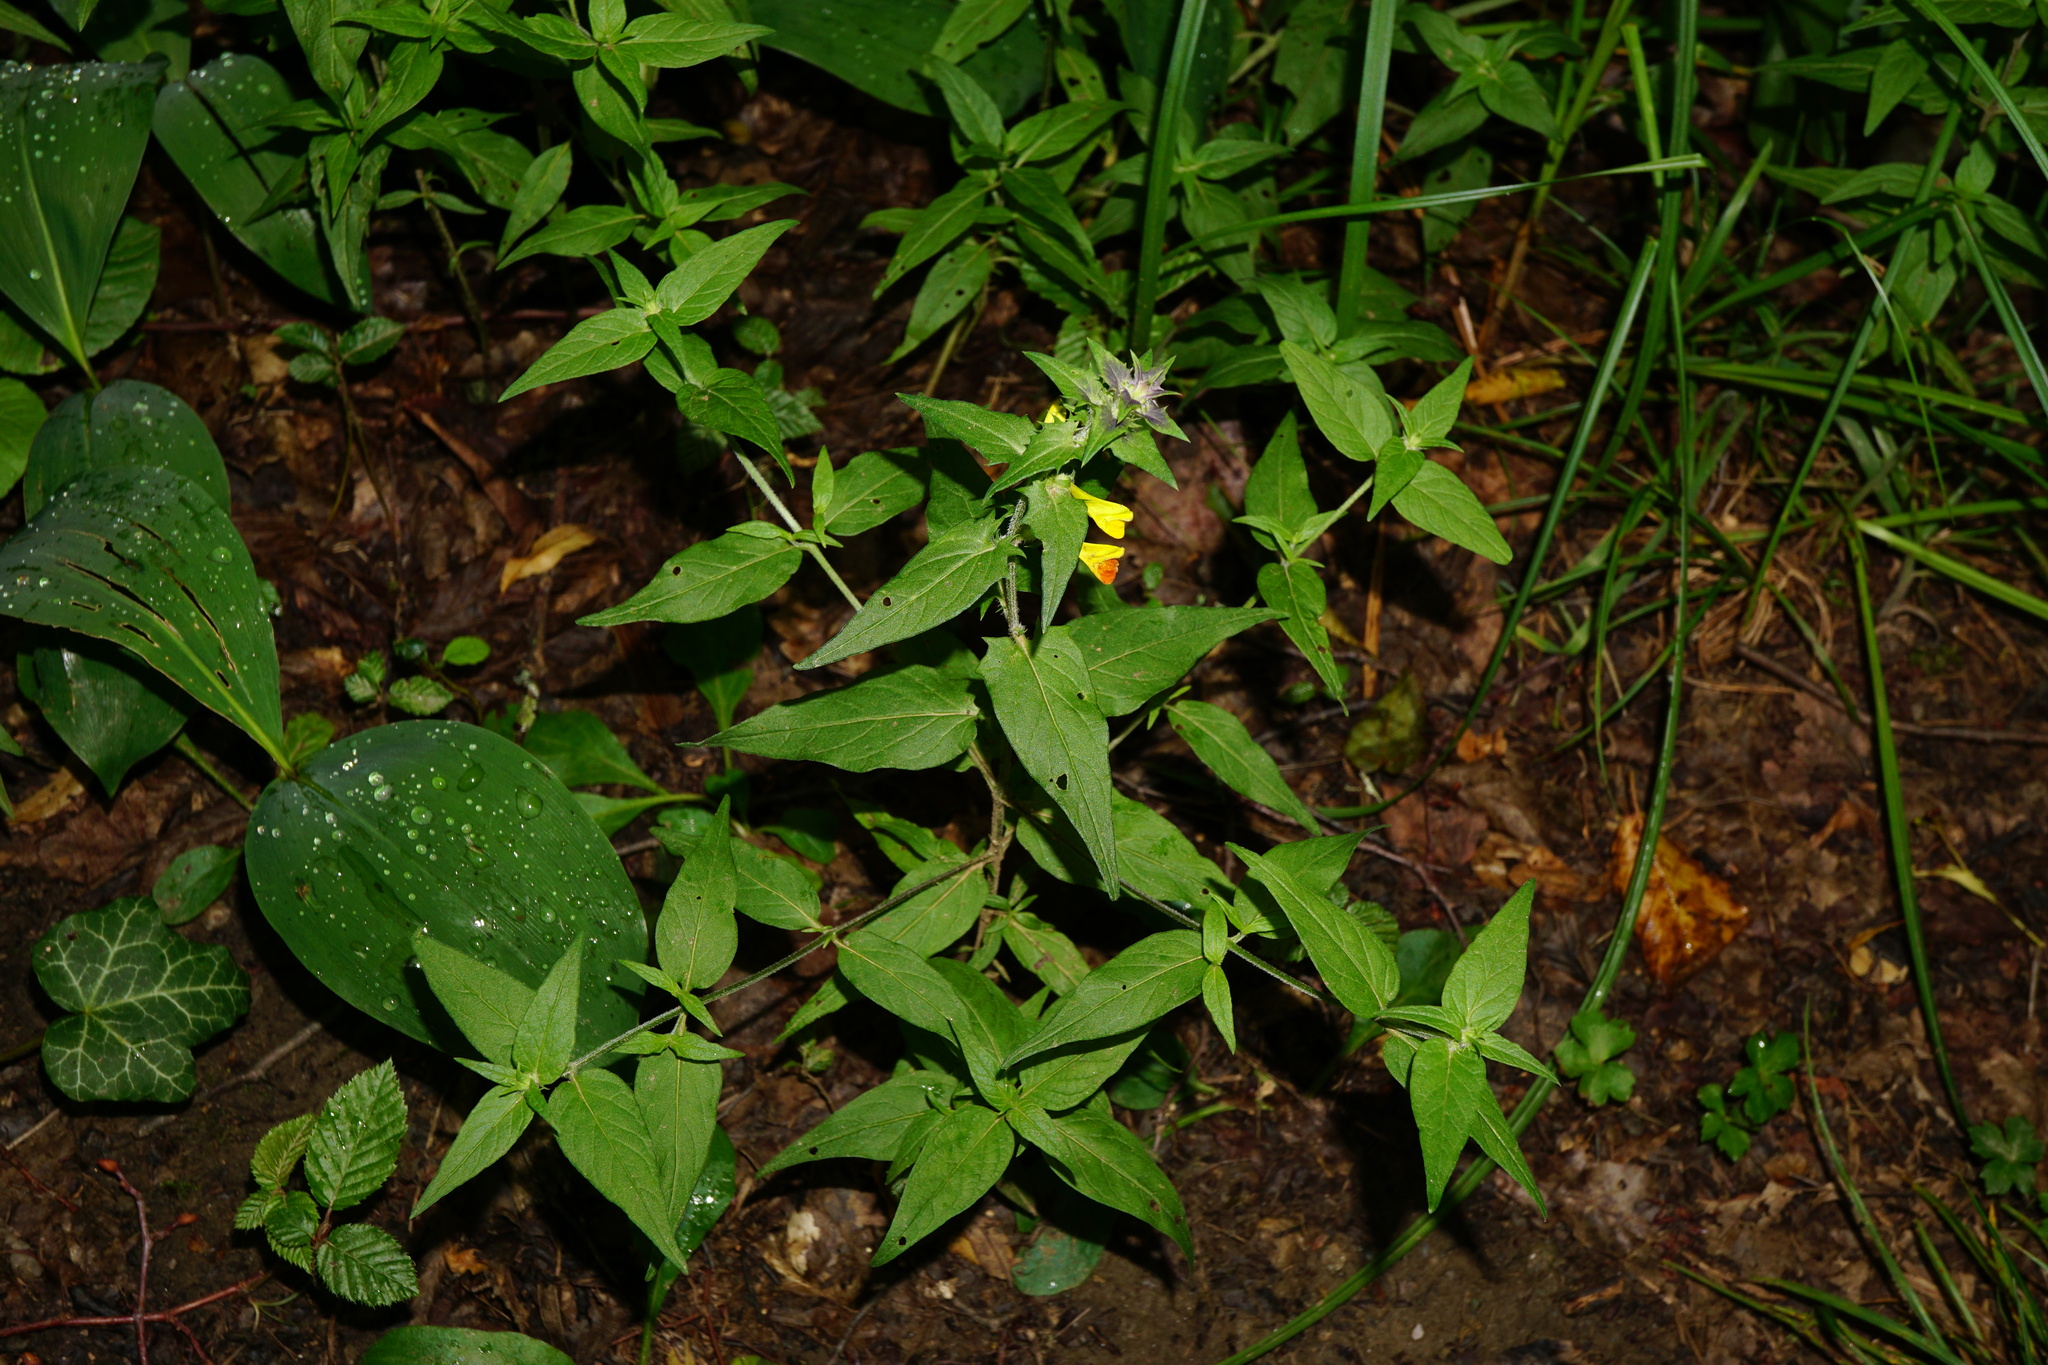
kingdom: Plantae
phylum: Tracheophyta
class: Magnoliopsida
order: Lamiales
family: Orobanchaceae
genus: Melampyrum
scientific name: Melampyrum nemorosum
